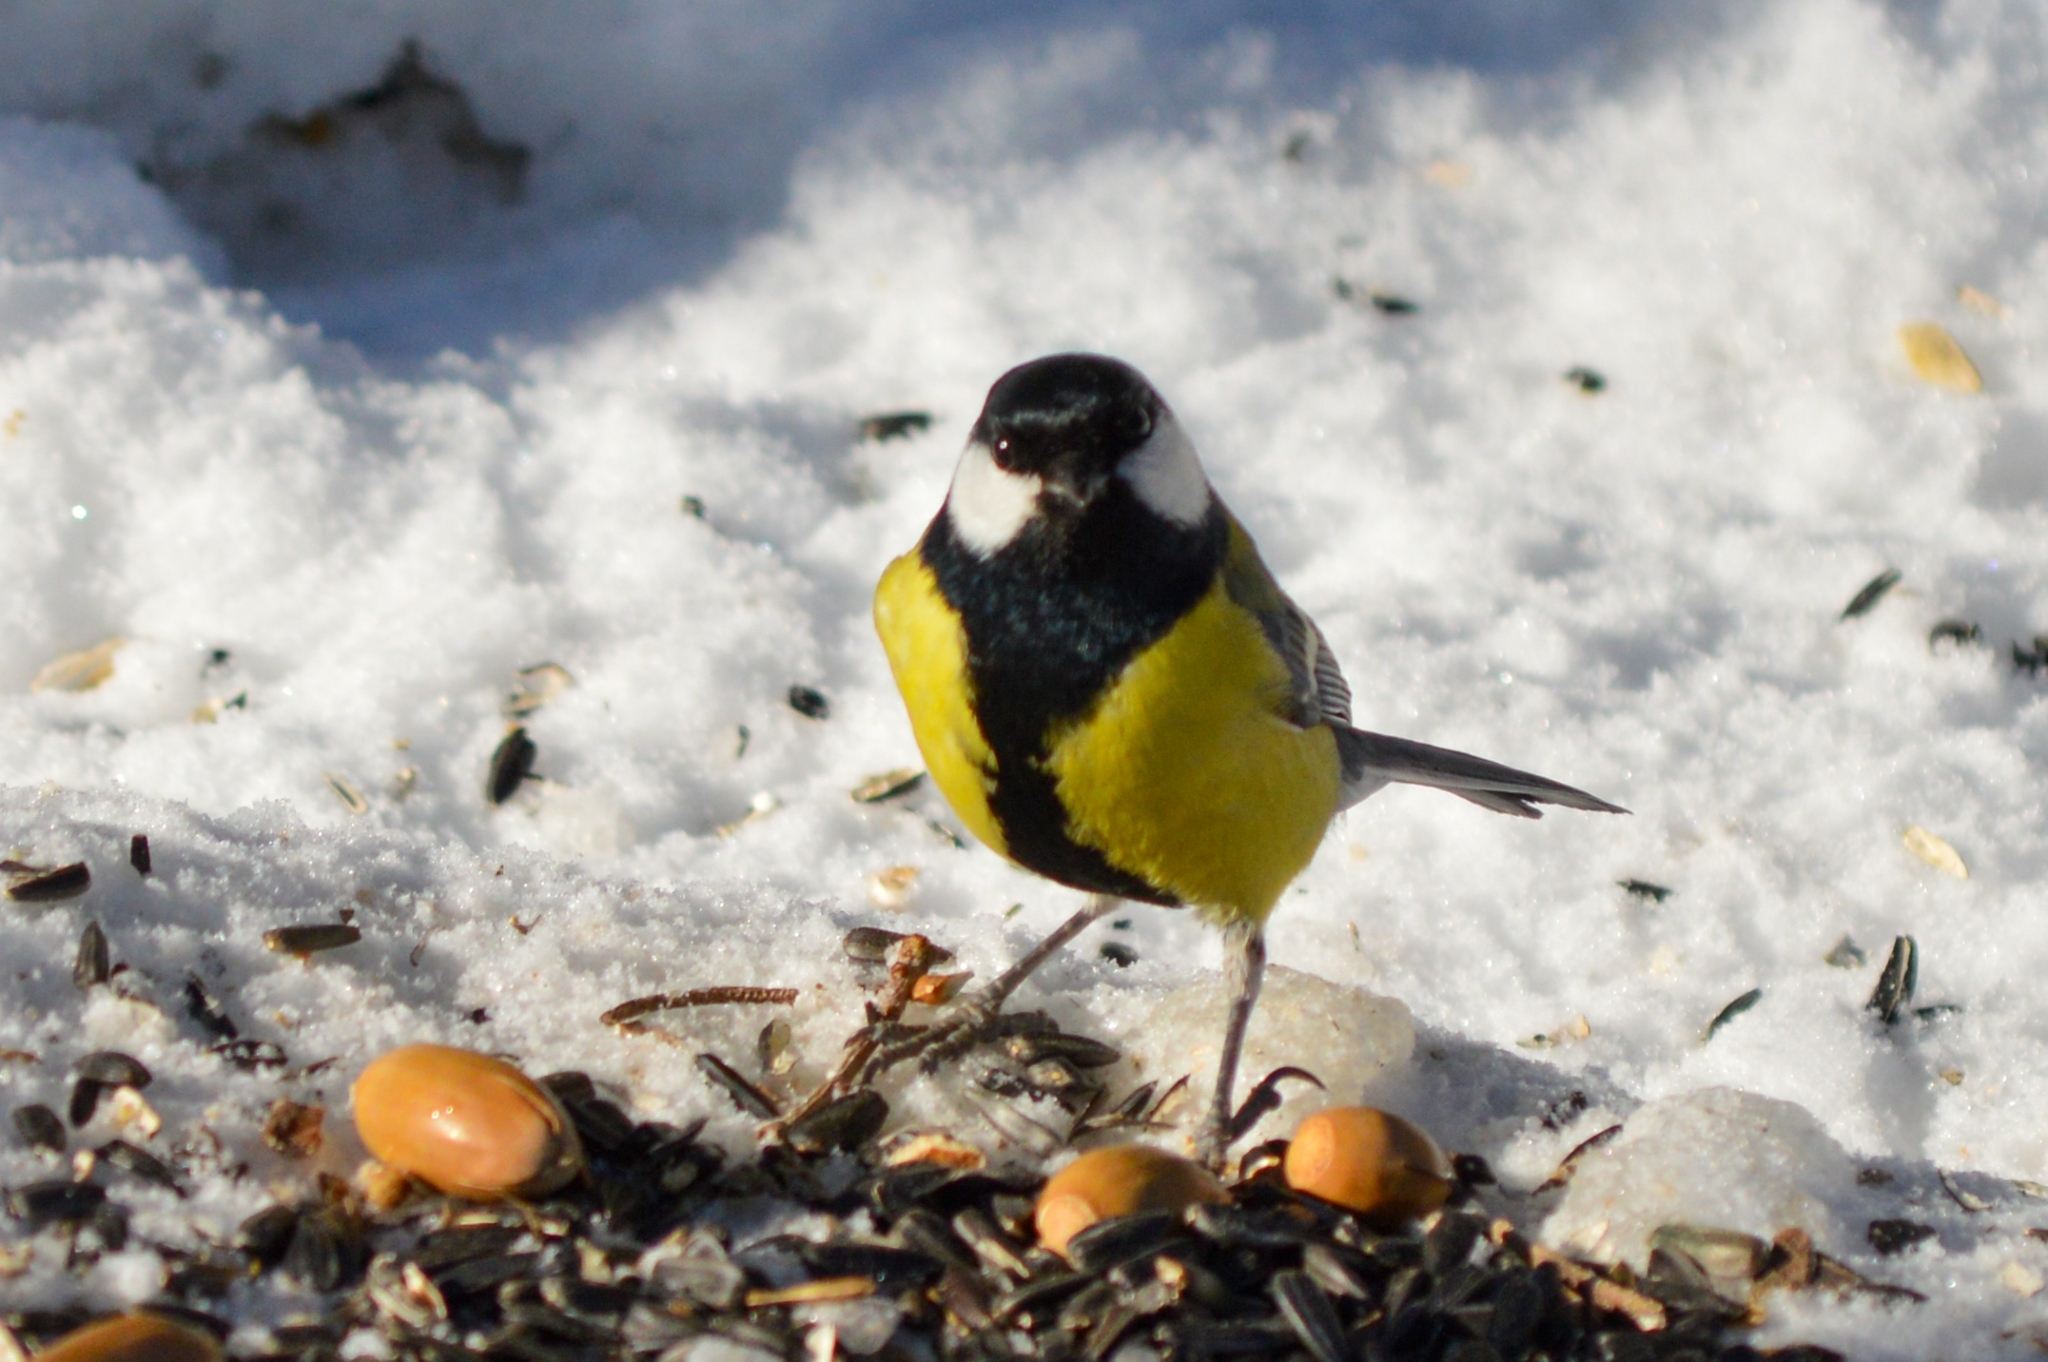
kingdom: Animalia
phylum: Chordata
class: Aves
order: Passeriformes
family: Paridae
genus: Parus
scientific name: Parus major
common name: Great tit
